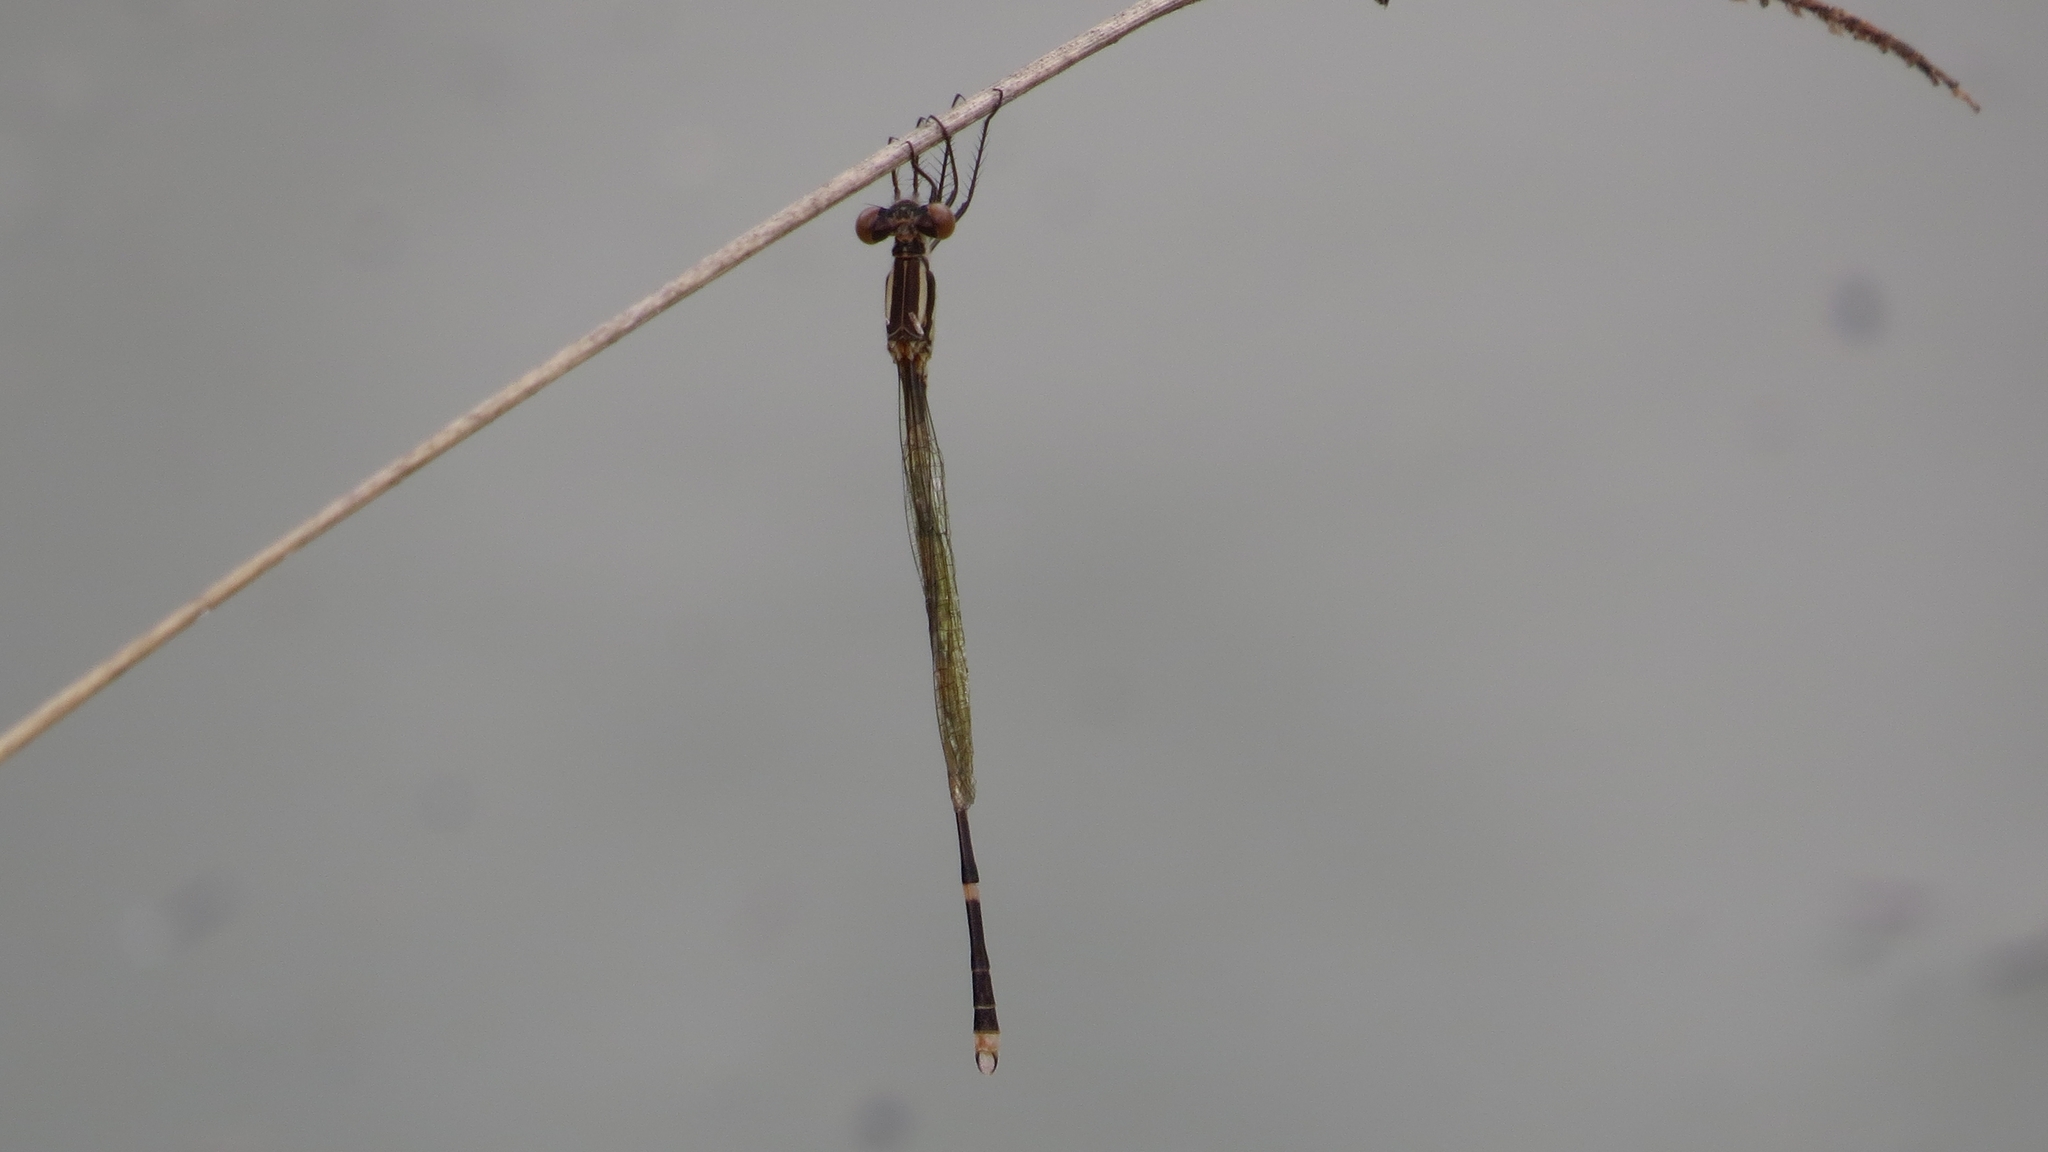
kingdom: Animalia
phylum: Arthropoda
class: Insecta
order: Odonata
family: Lestidae
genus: Austrolestes
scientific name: Austrolestes leda
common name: Wandering ringtail
